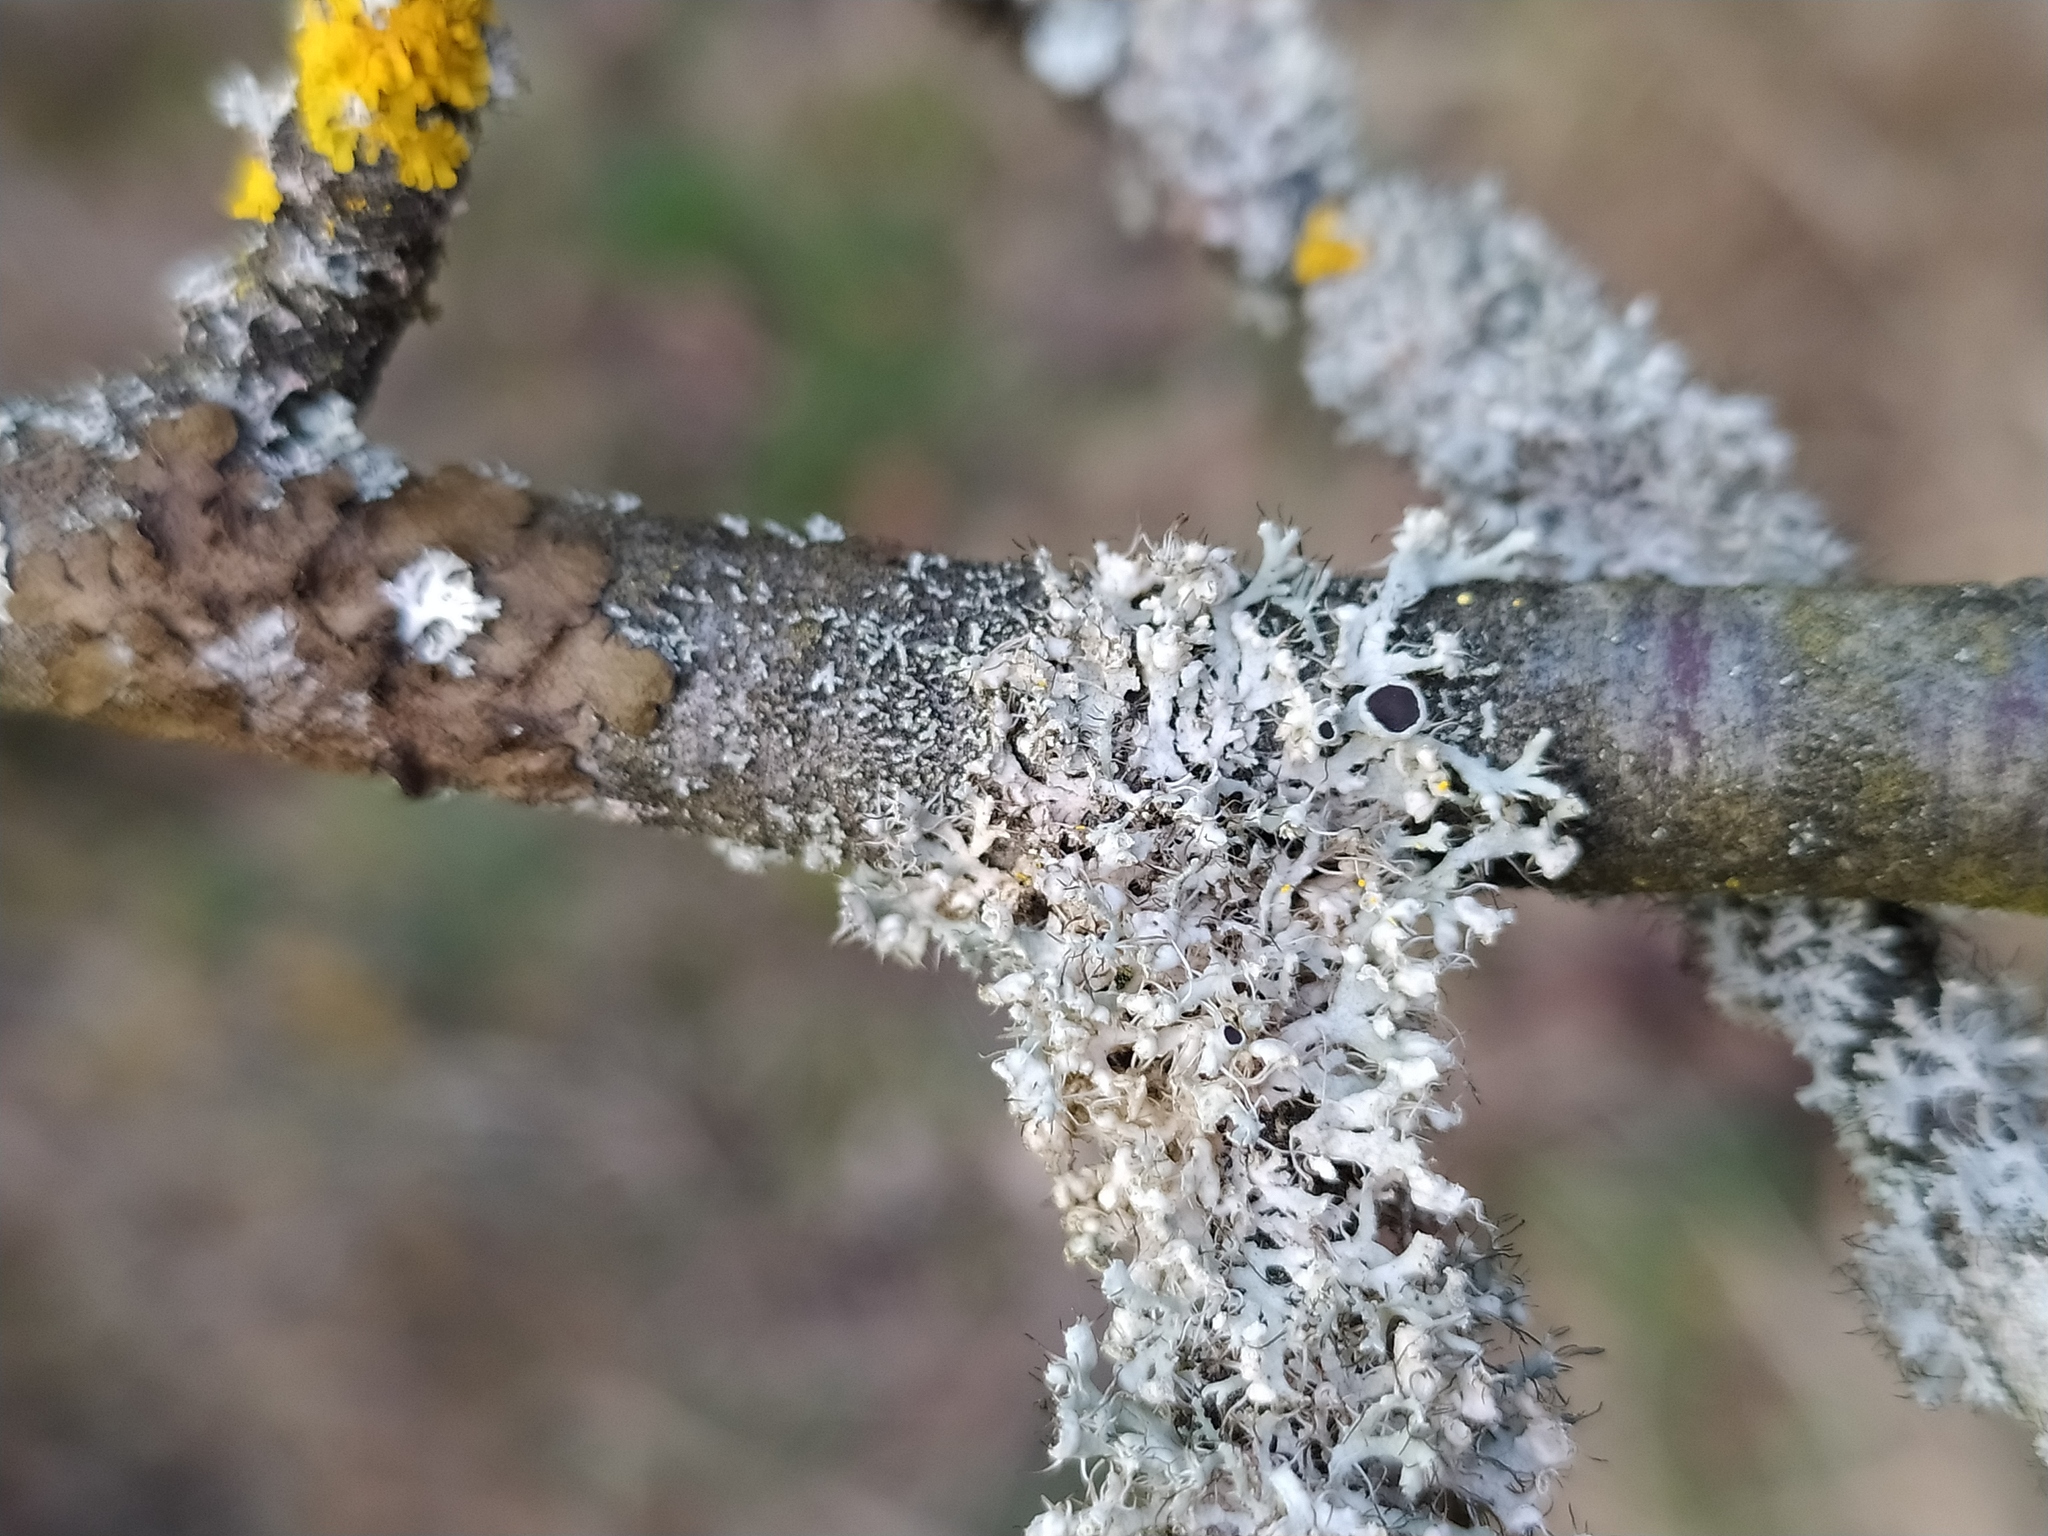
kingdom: Fungi
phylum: Ascomycota
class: Lecanoromycetes
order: Caliciales
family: Physciaceae
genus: Physcia
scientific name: Physcia adscendens
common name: Hooded rosette lichen
